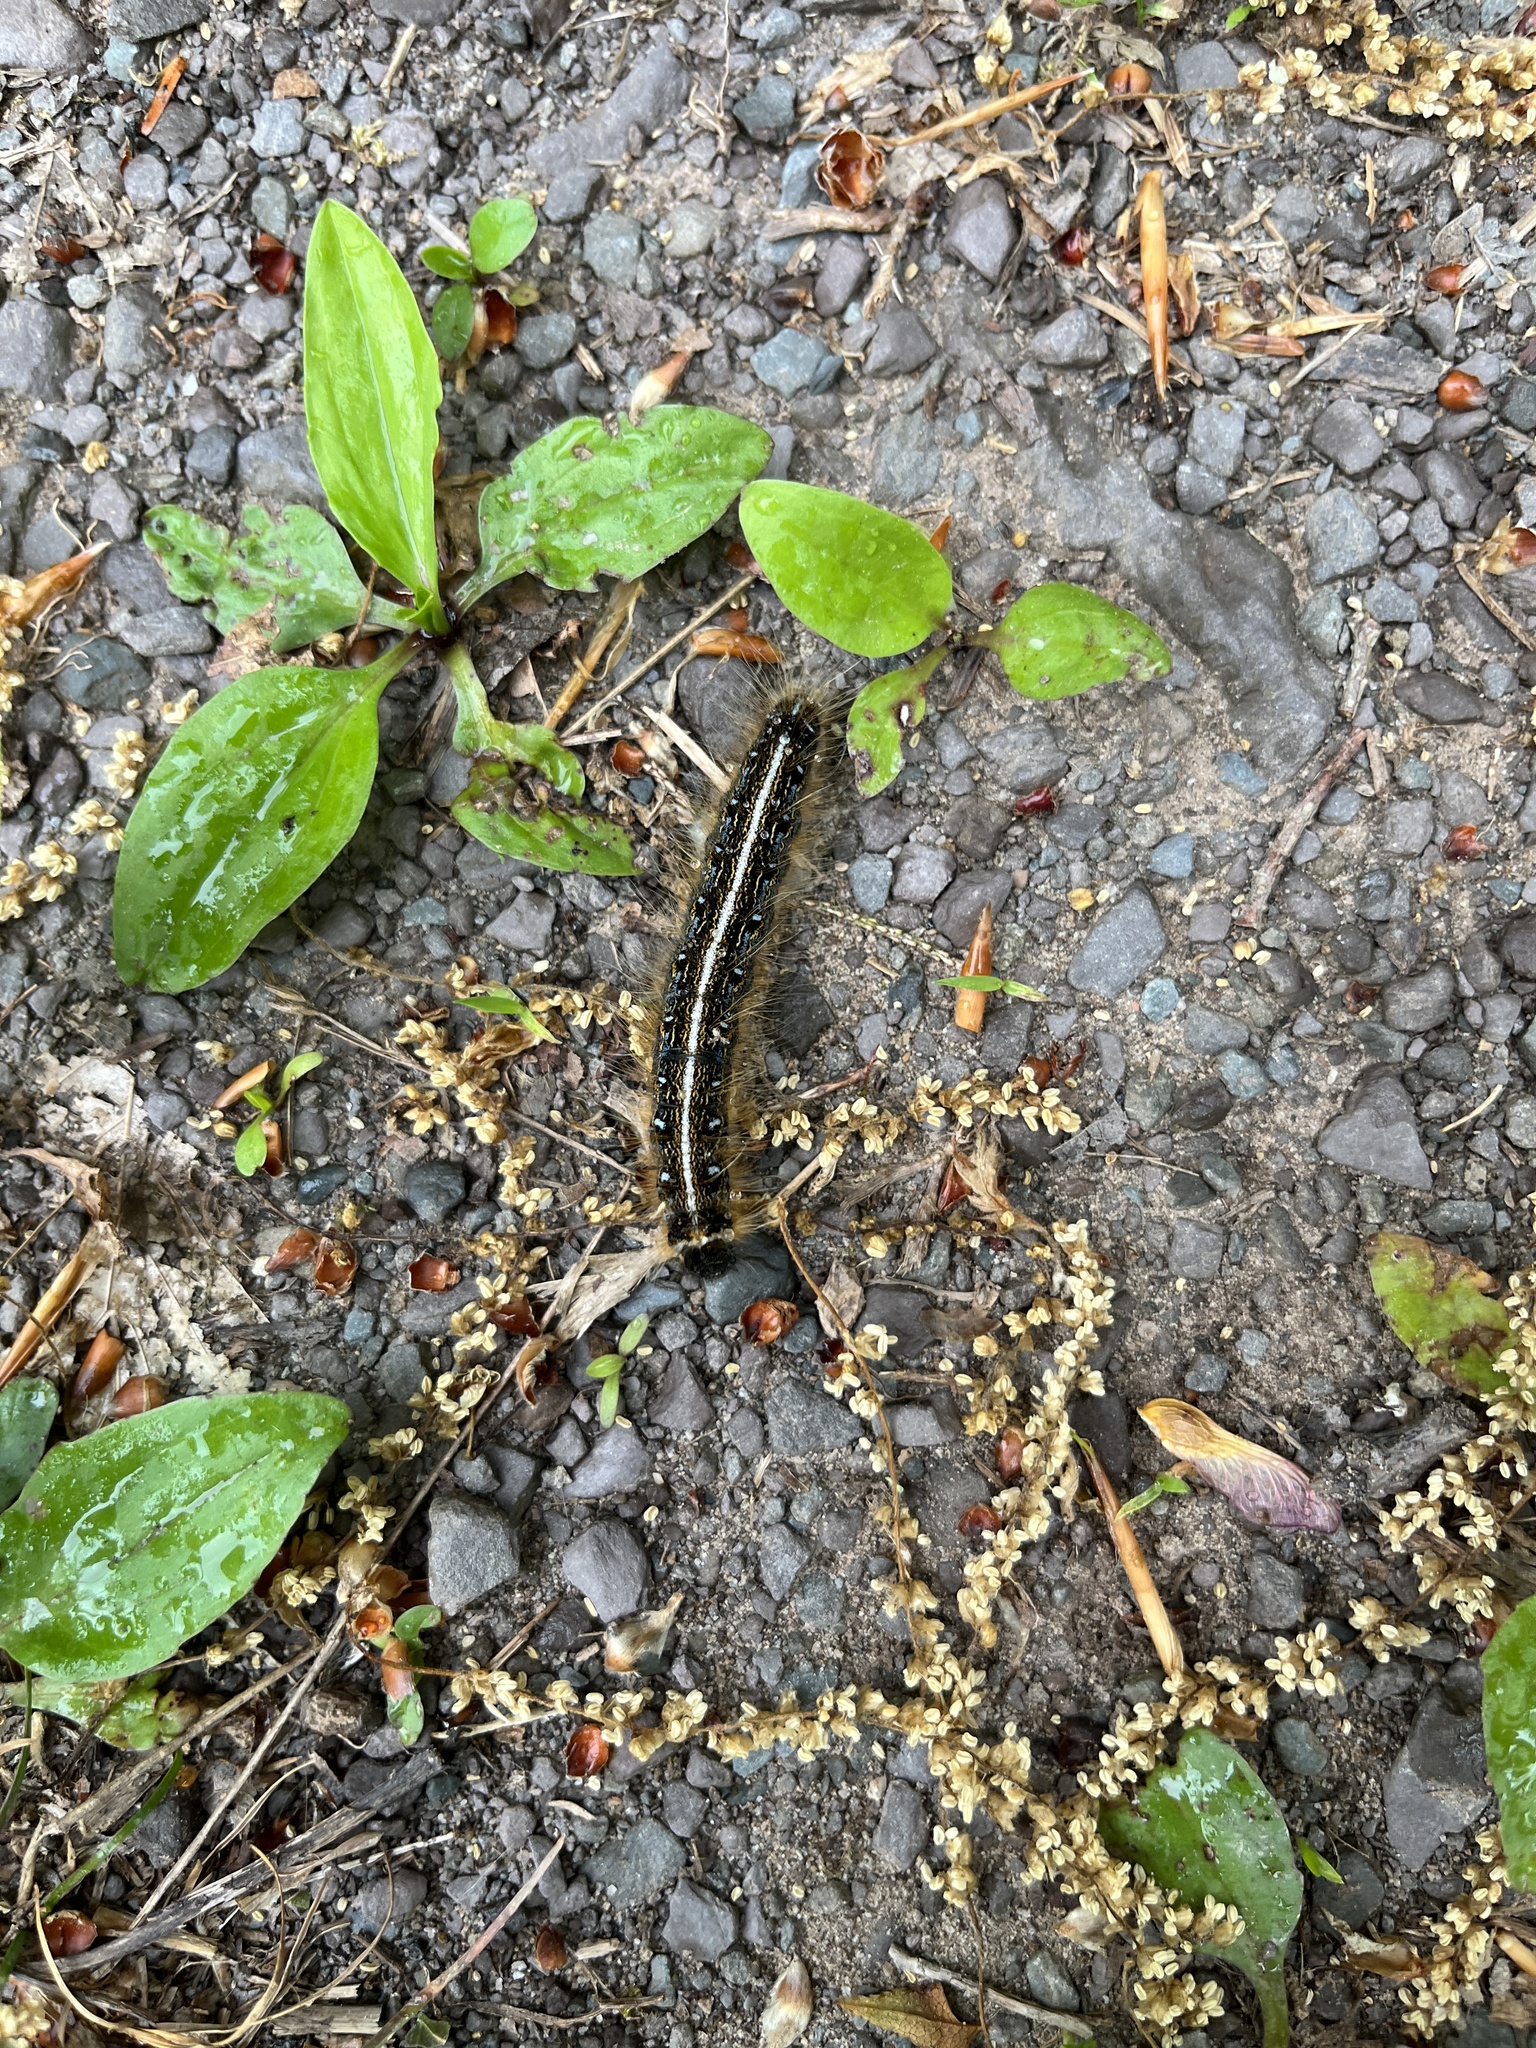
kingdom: Animalia
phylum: Arthropoda
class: Insecta
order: Lepidoptera
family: Lasiocampidae
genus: Malacosoma
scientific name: Malacosoma americana
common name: Eastern tent caterpillar moth
